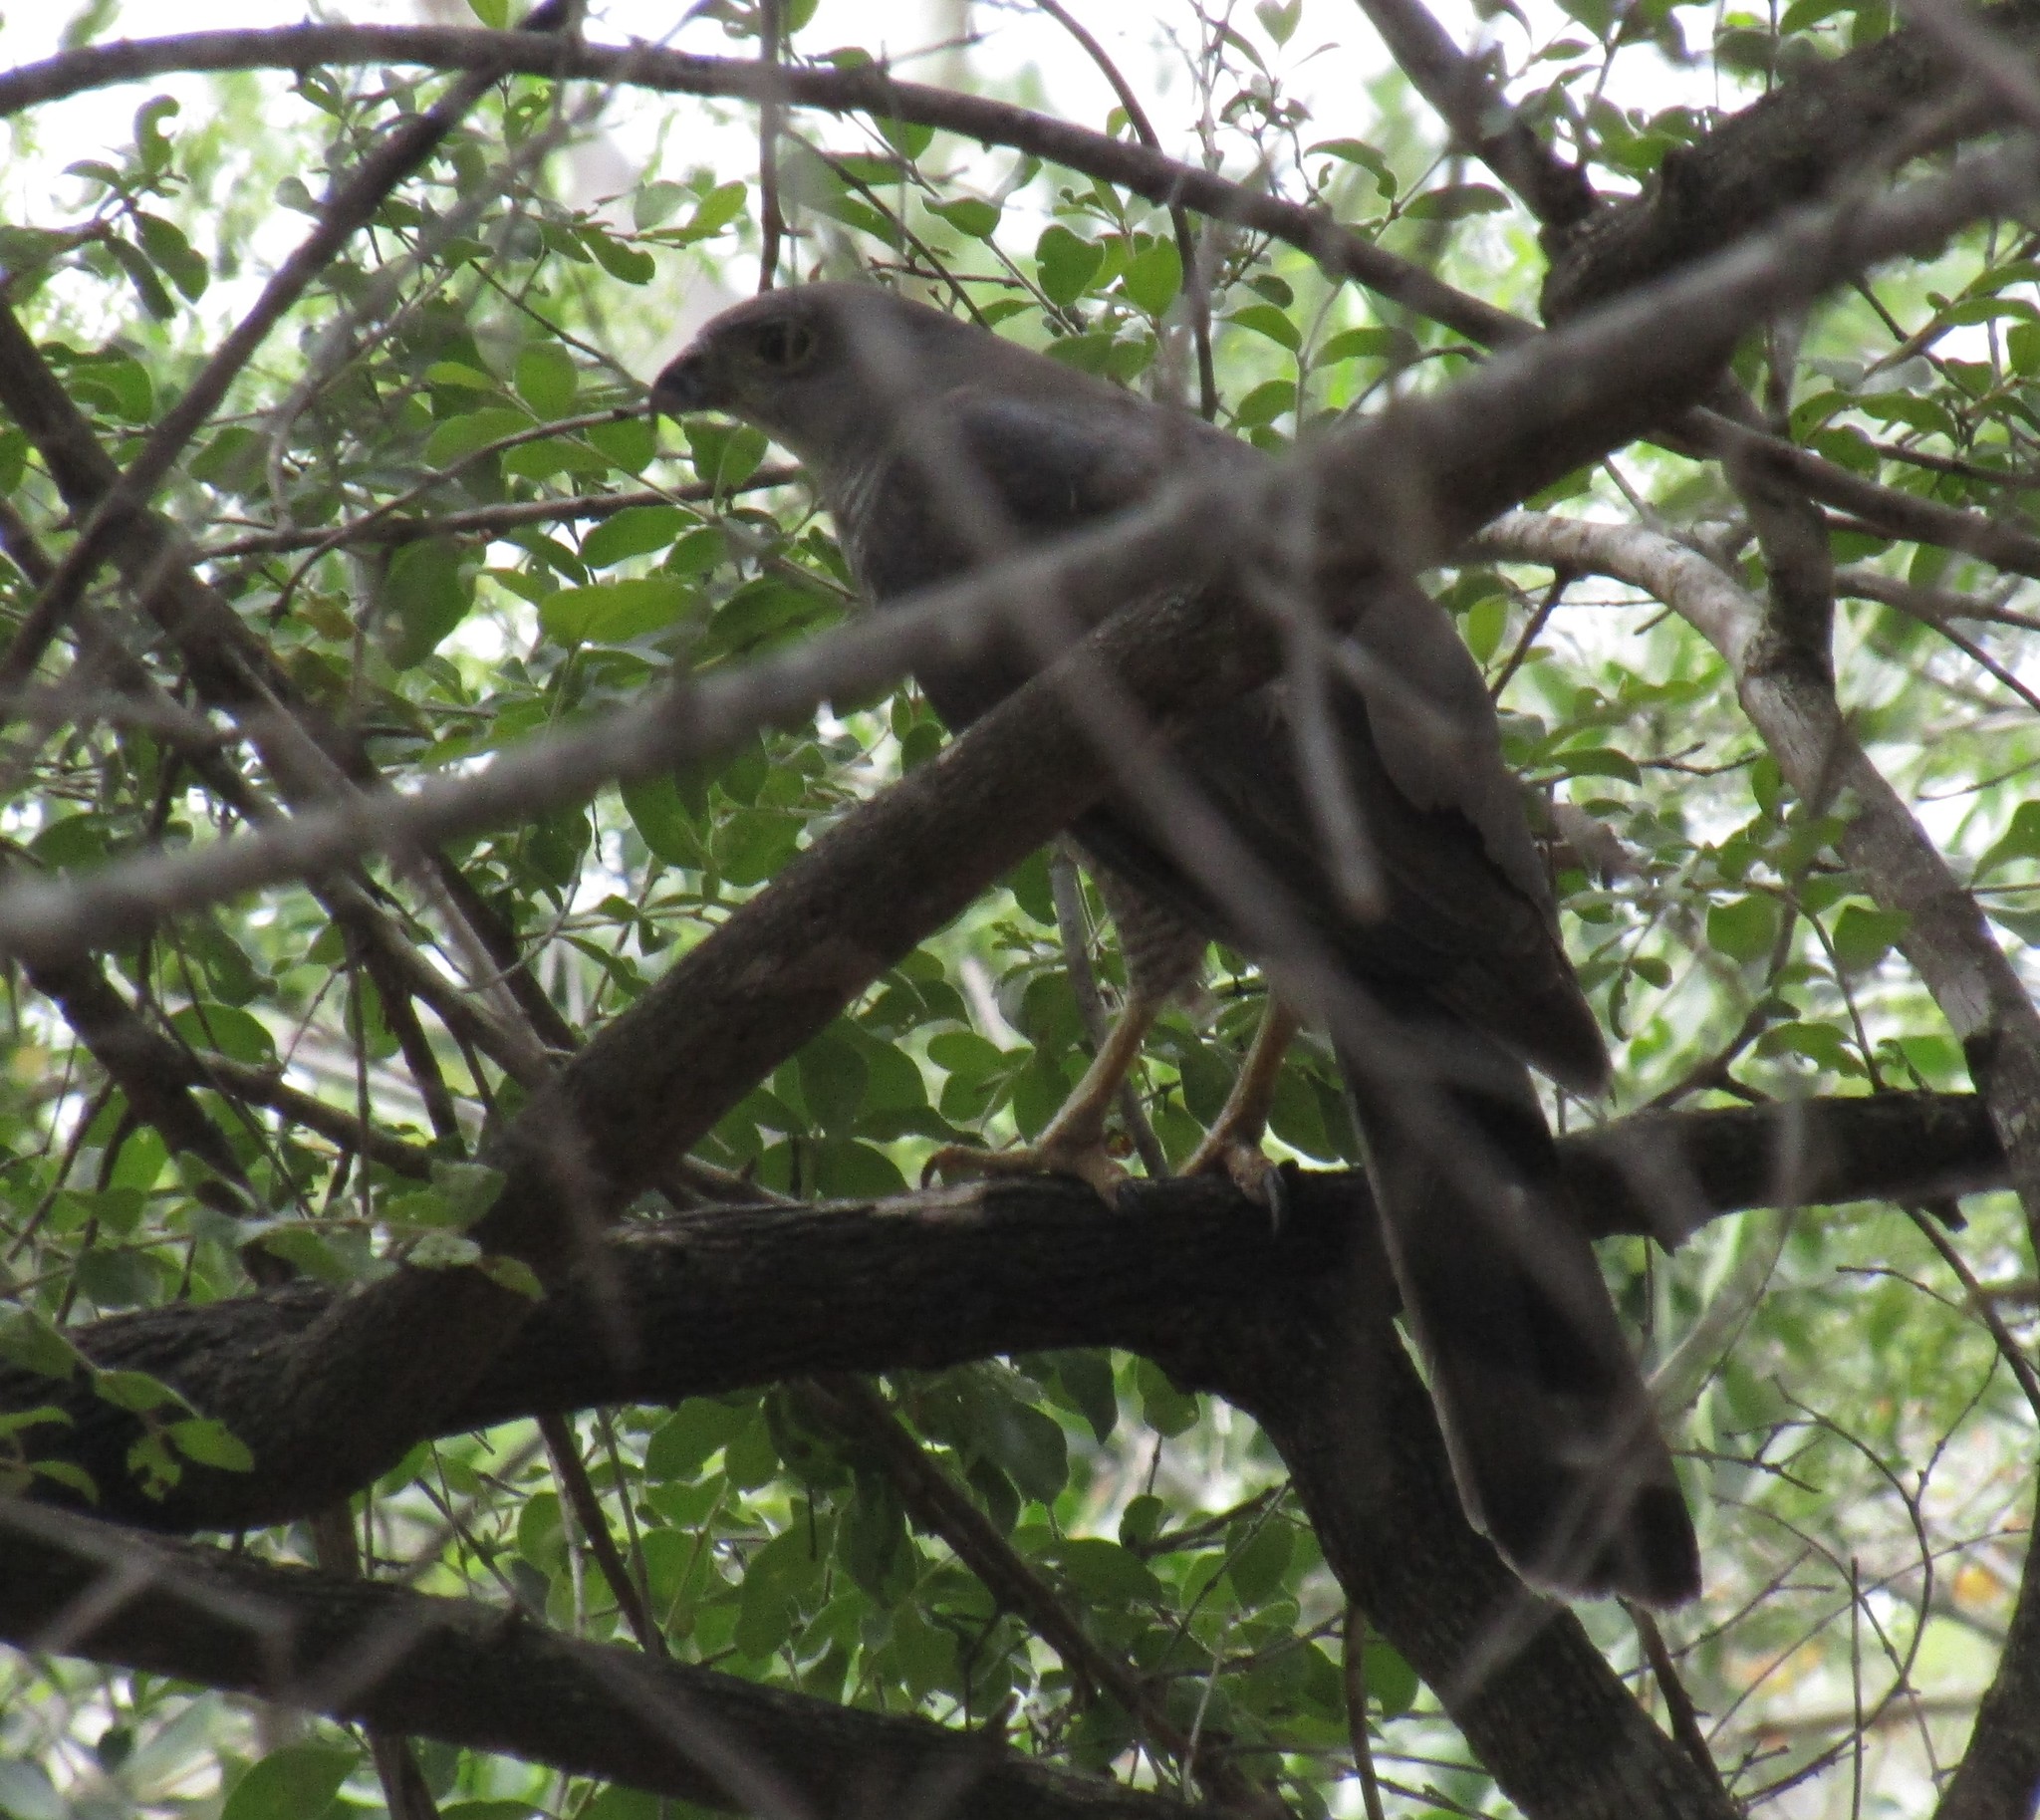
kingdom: Animalia
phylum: Chordata
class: Aves
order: Accipitriformes
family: Accipitridae
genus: Accipiter
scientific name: Accipiter tachiro
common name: African goshawk
